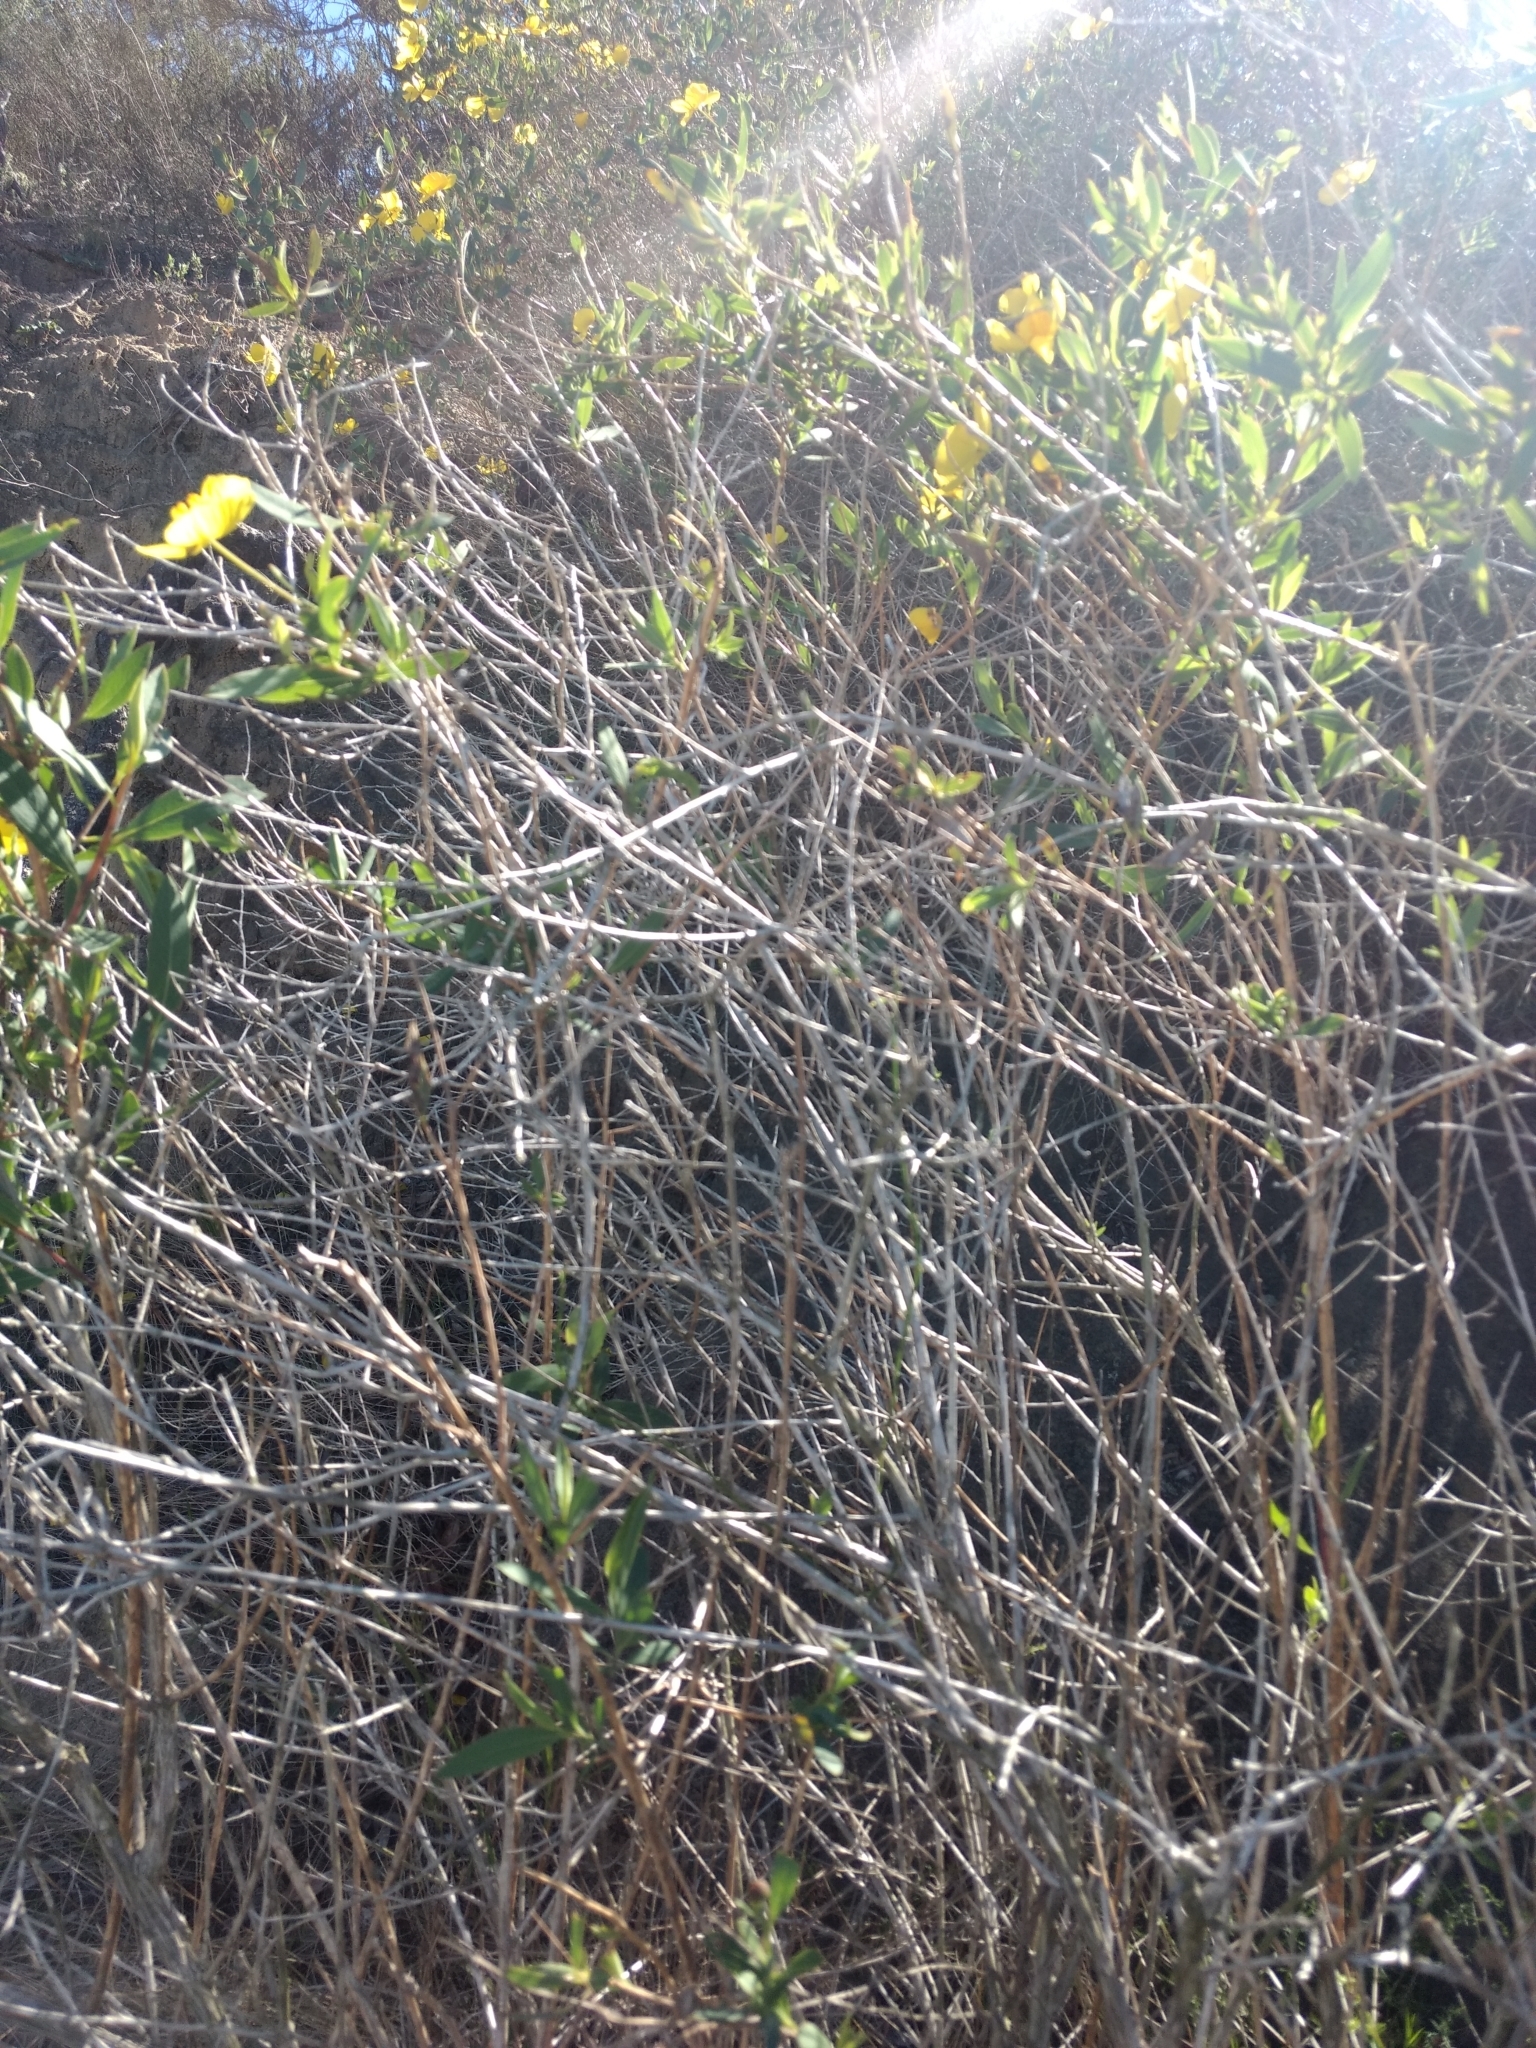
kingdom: Plantae
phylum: Tracheophyta
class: Magnoliopsida
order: Ranunculales
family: Papaveraceae
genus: Dendromecon
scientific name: Dendromecon rigida
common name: Tree poppy
